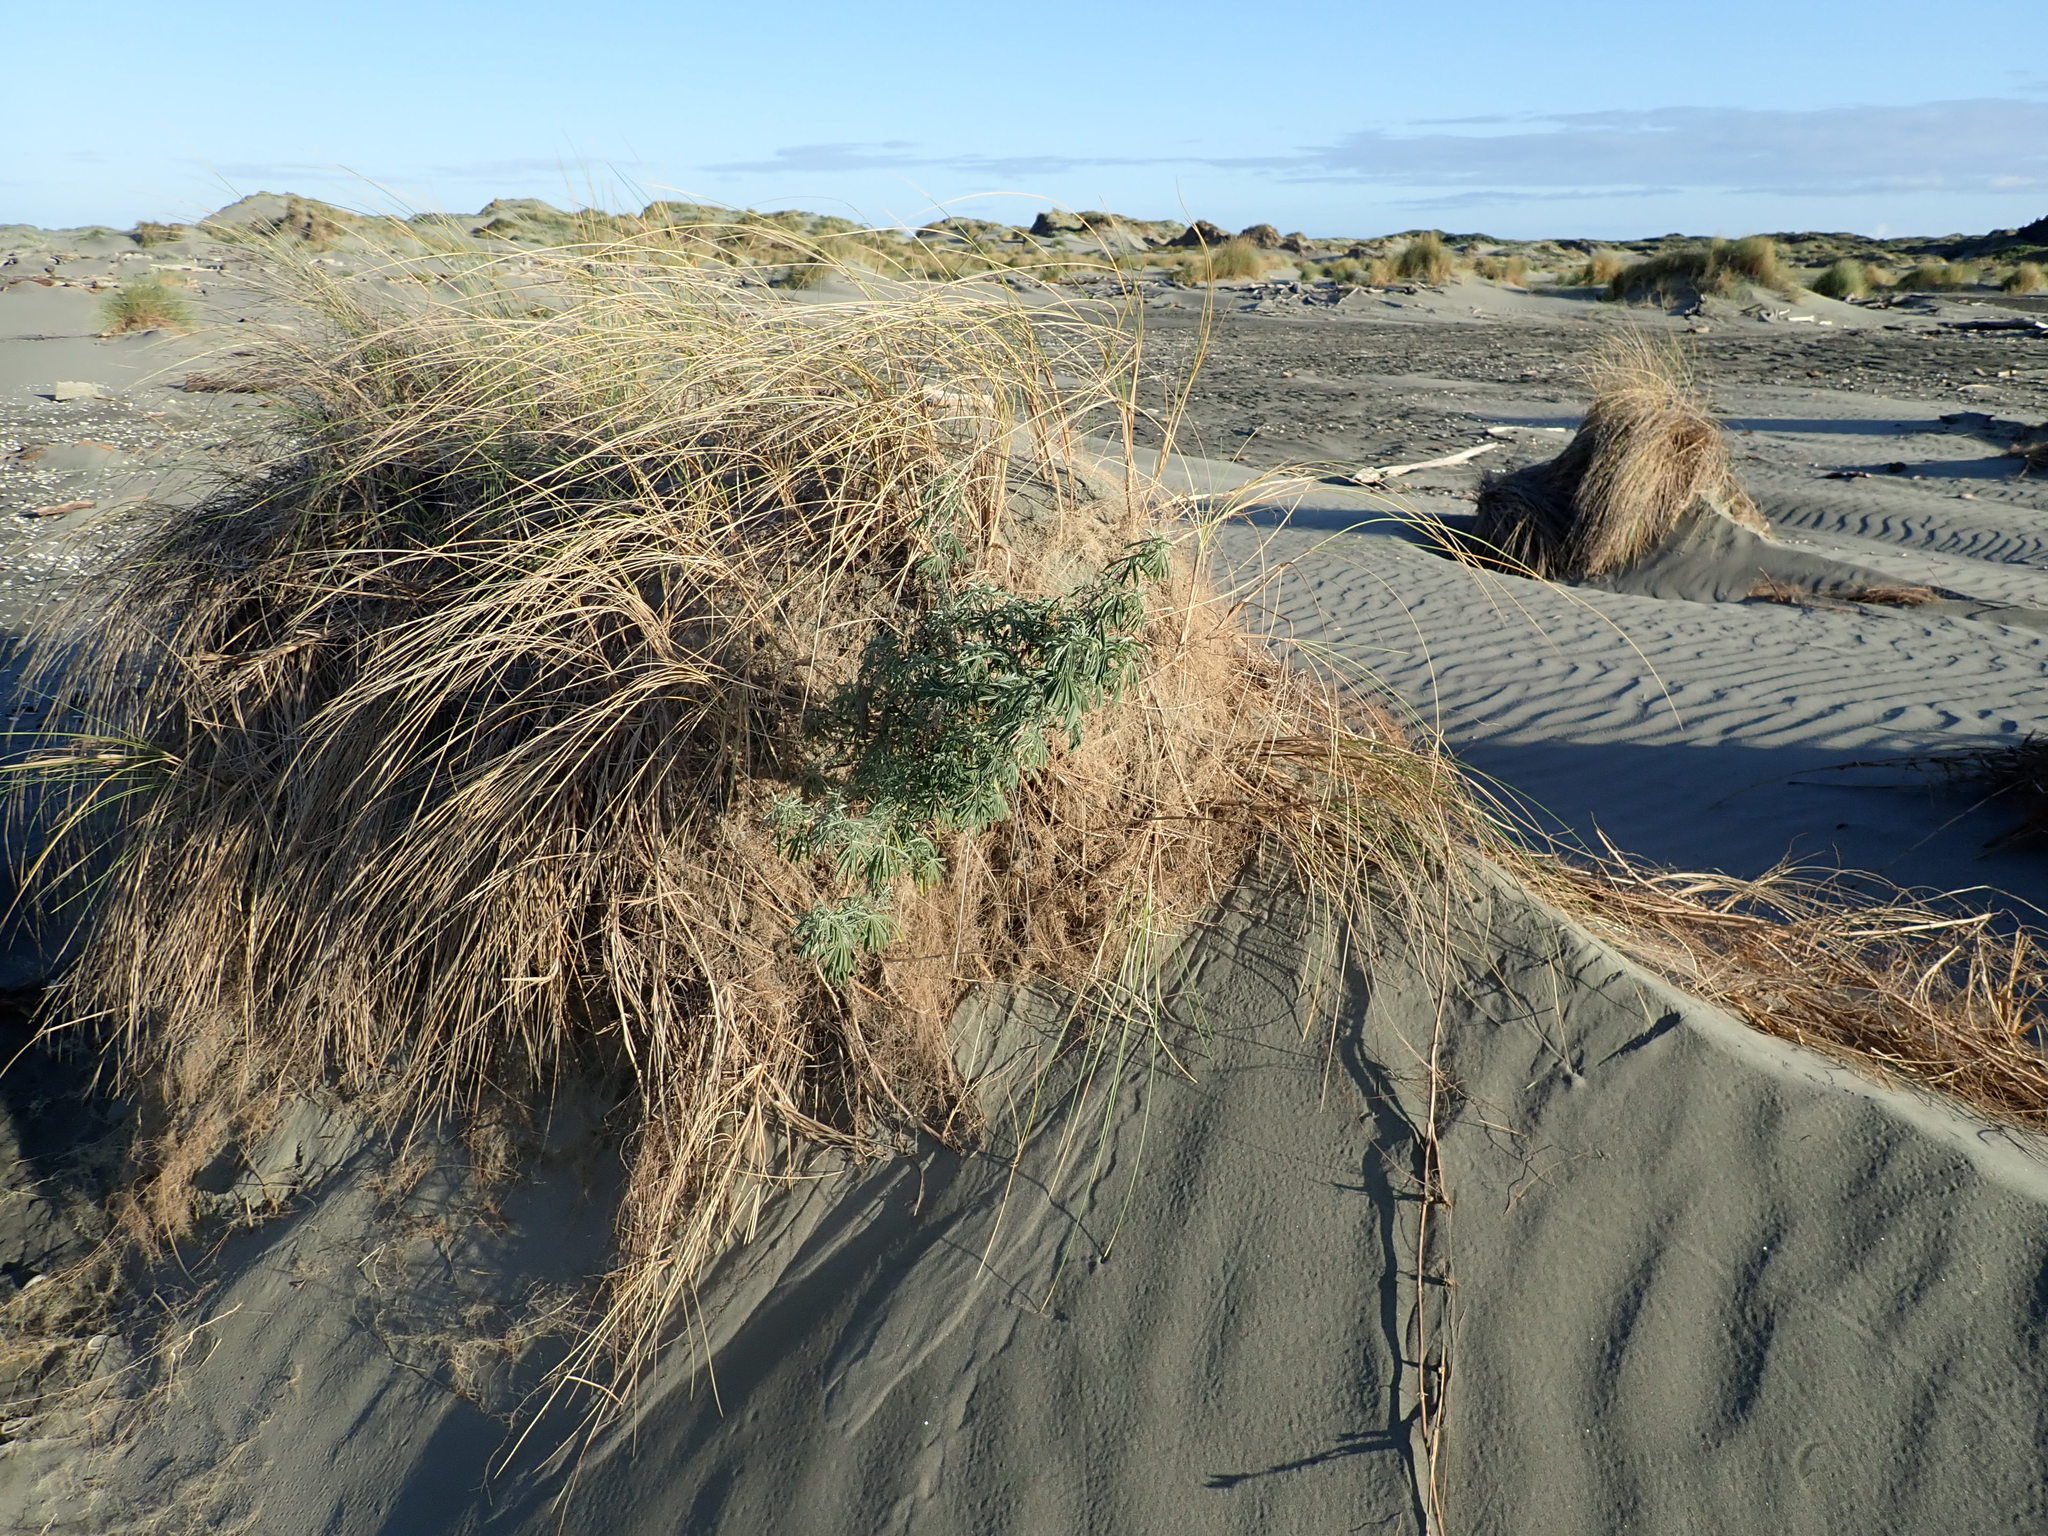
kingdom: Plantae
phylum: Tracheophyta
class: Magnoliopsida
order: Fabales
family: Fabaceae
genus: Lupinus
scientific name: Lupinus arboreus
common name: Yellow bush lupine
